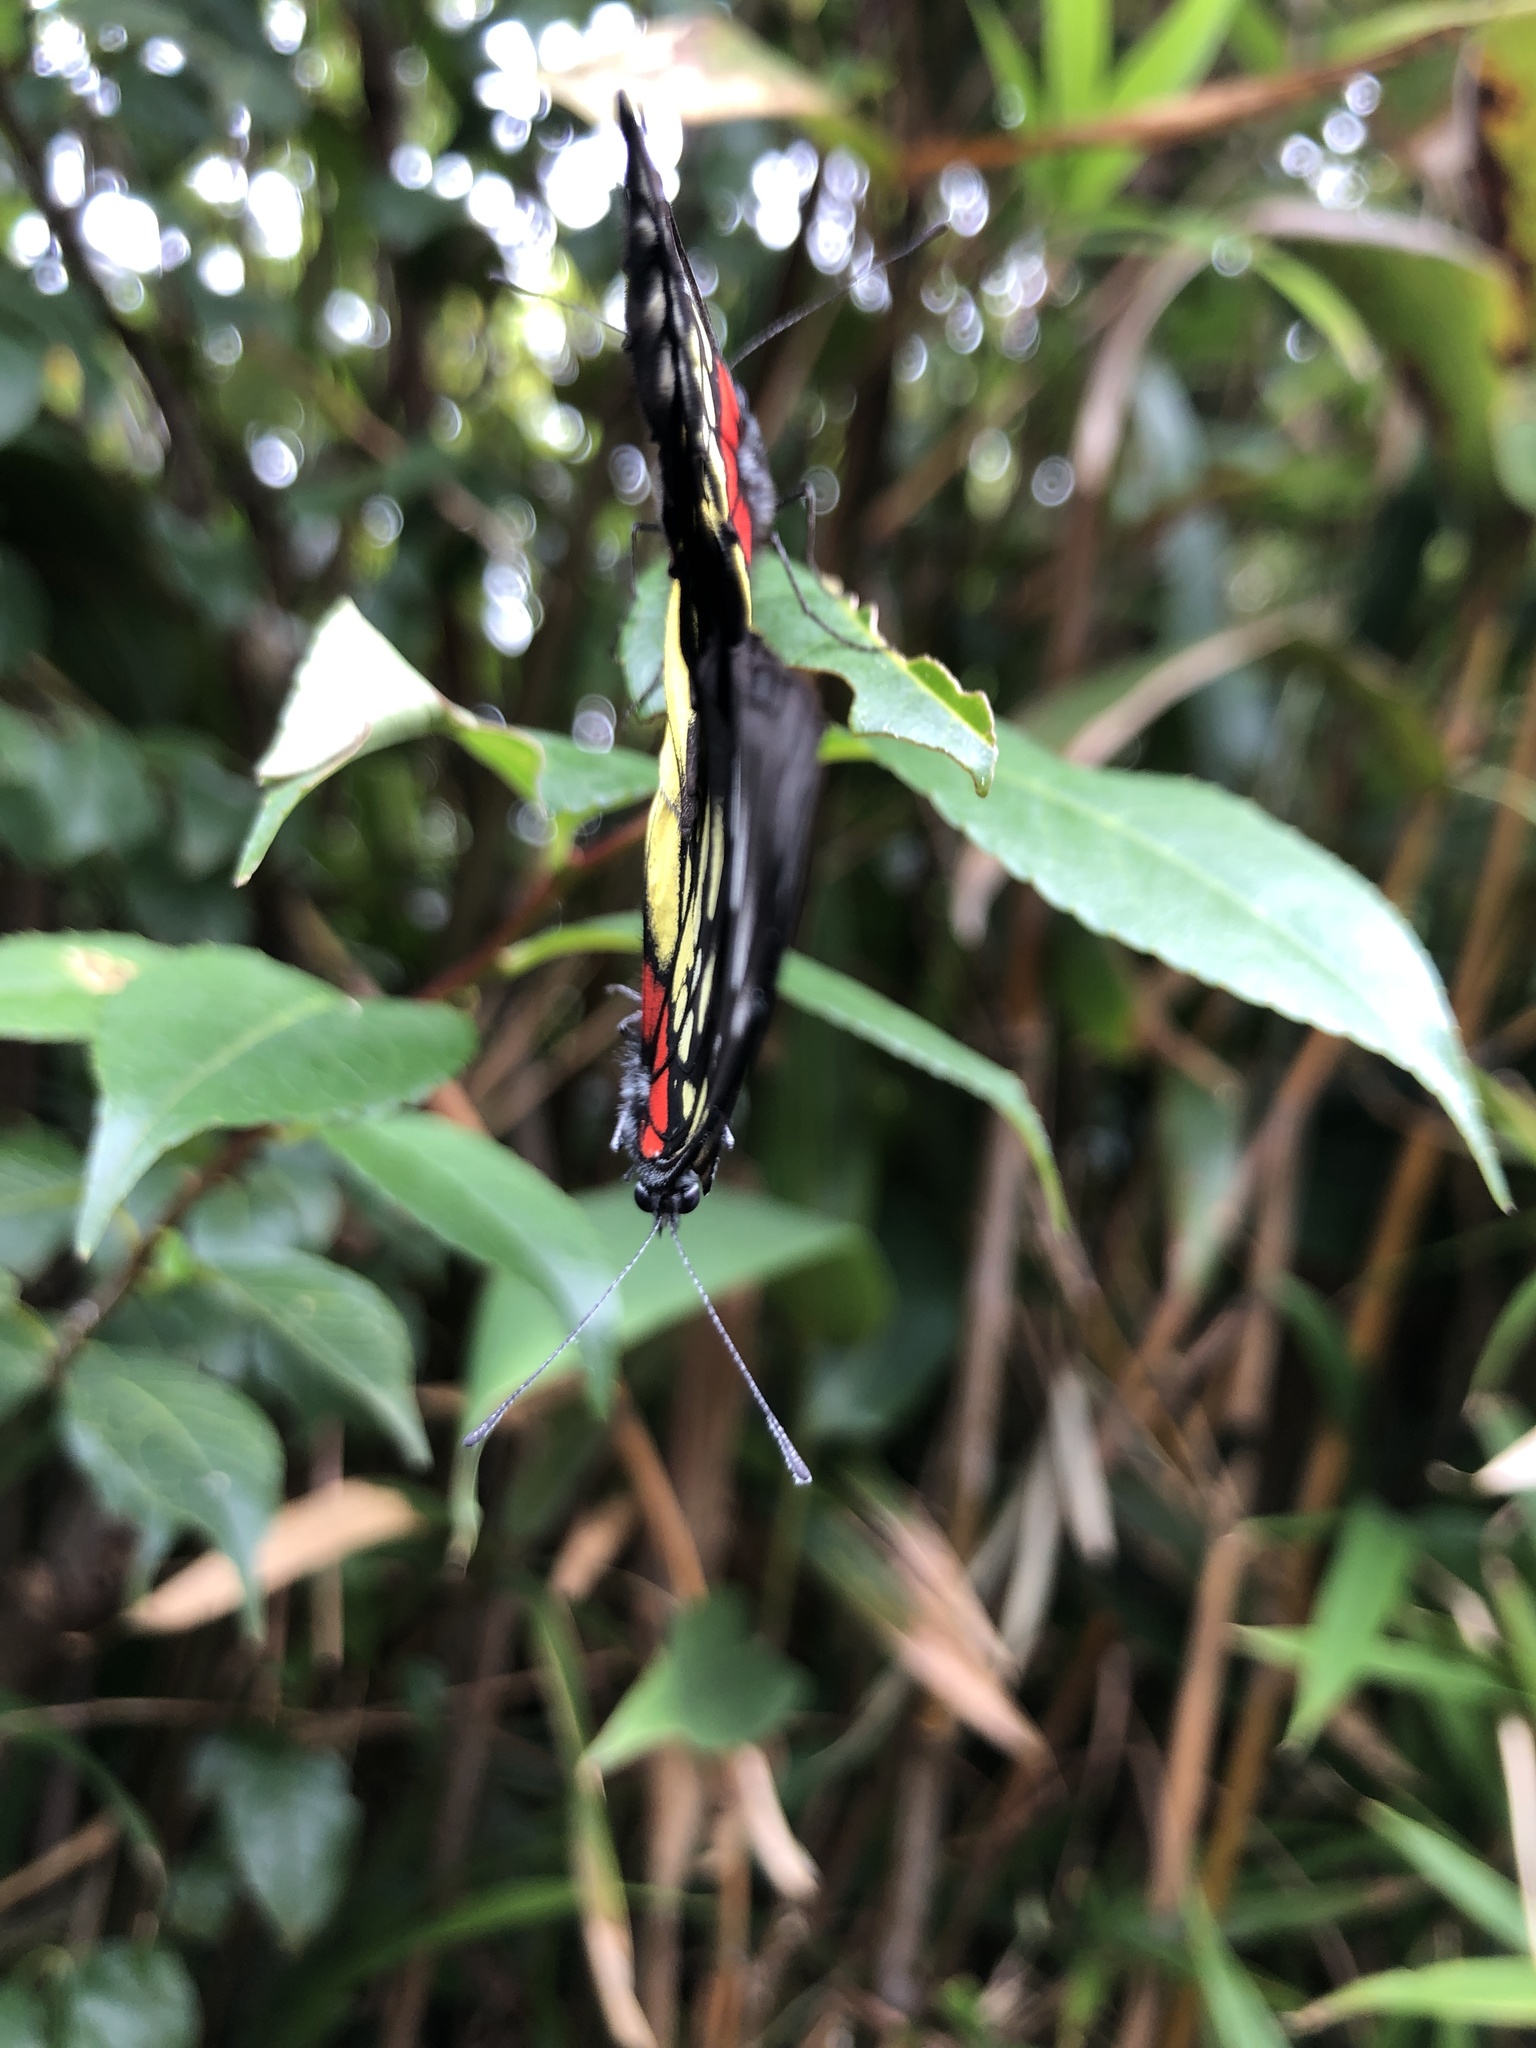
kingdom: Animalia
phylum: Arthropoda
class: Insecta
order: Lepidoptera
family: Pieridae
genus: Delias
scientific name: Delias pasithoe
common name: Red-base jezebel
